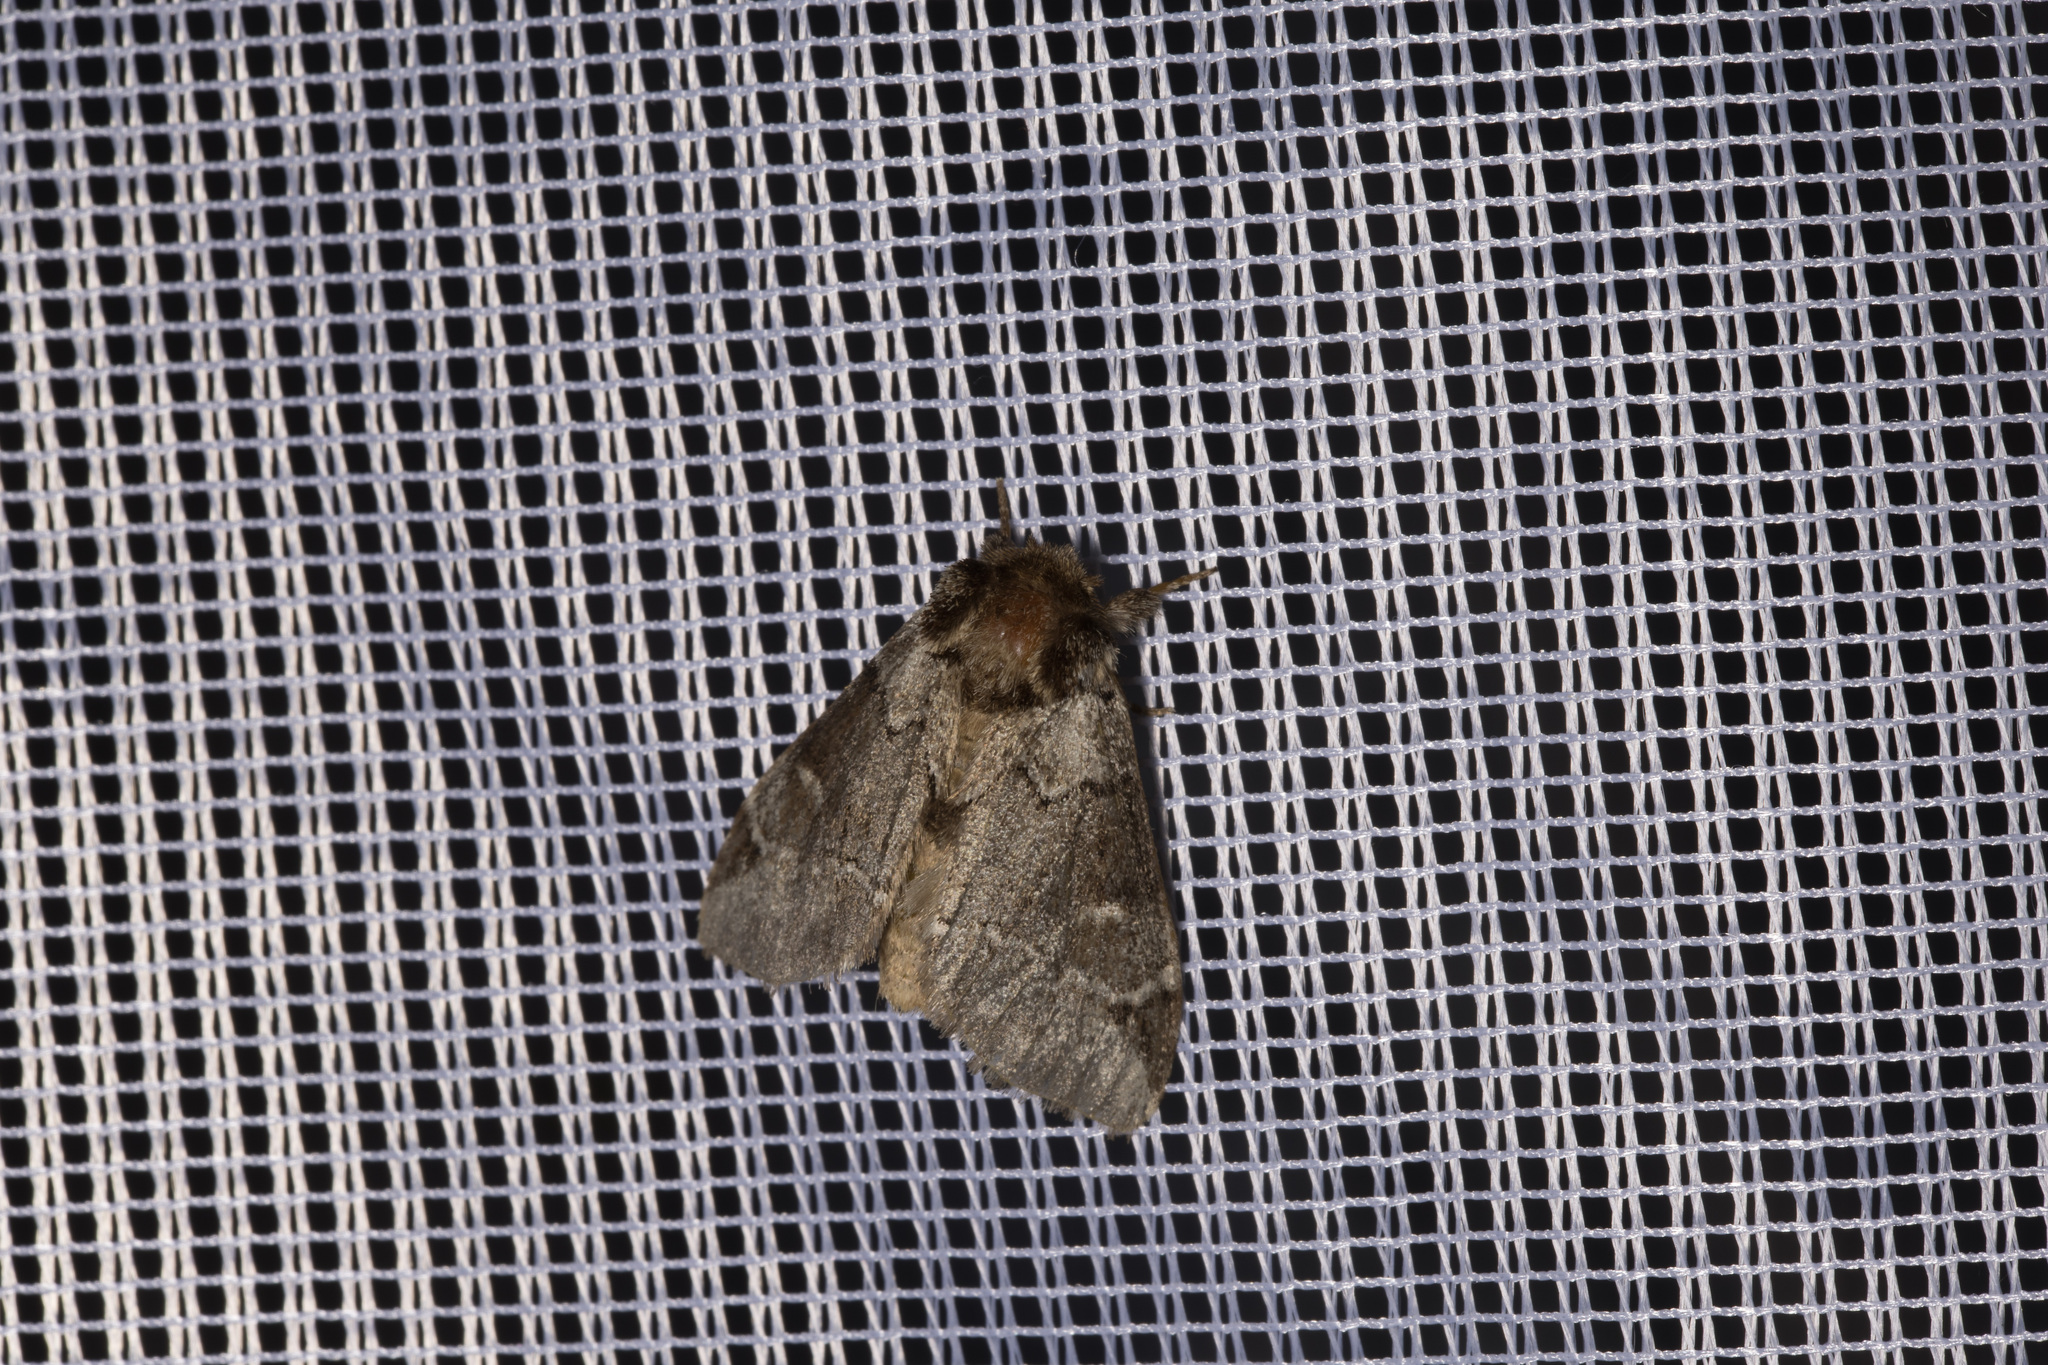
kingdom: Animalia
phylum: Arthropoda
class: Insecta
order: Lepidoptera
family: Notodontidae
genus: Drymonia
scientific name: Drymonia obliterata
